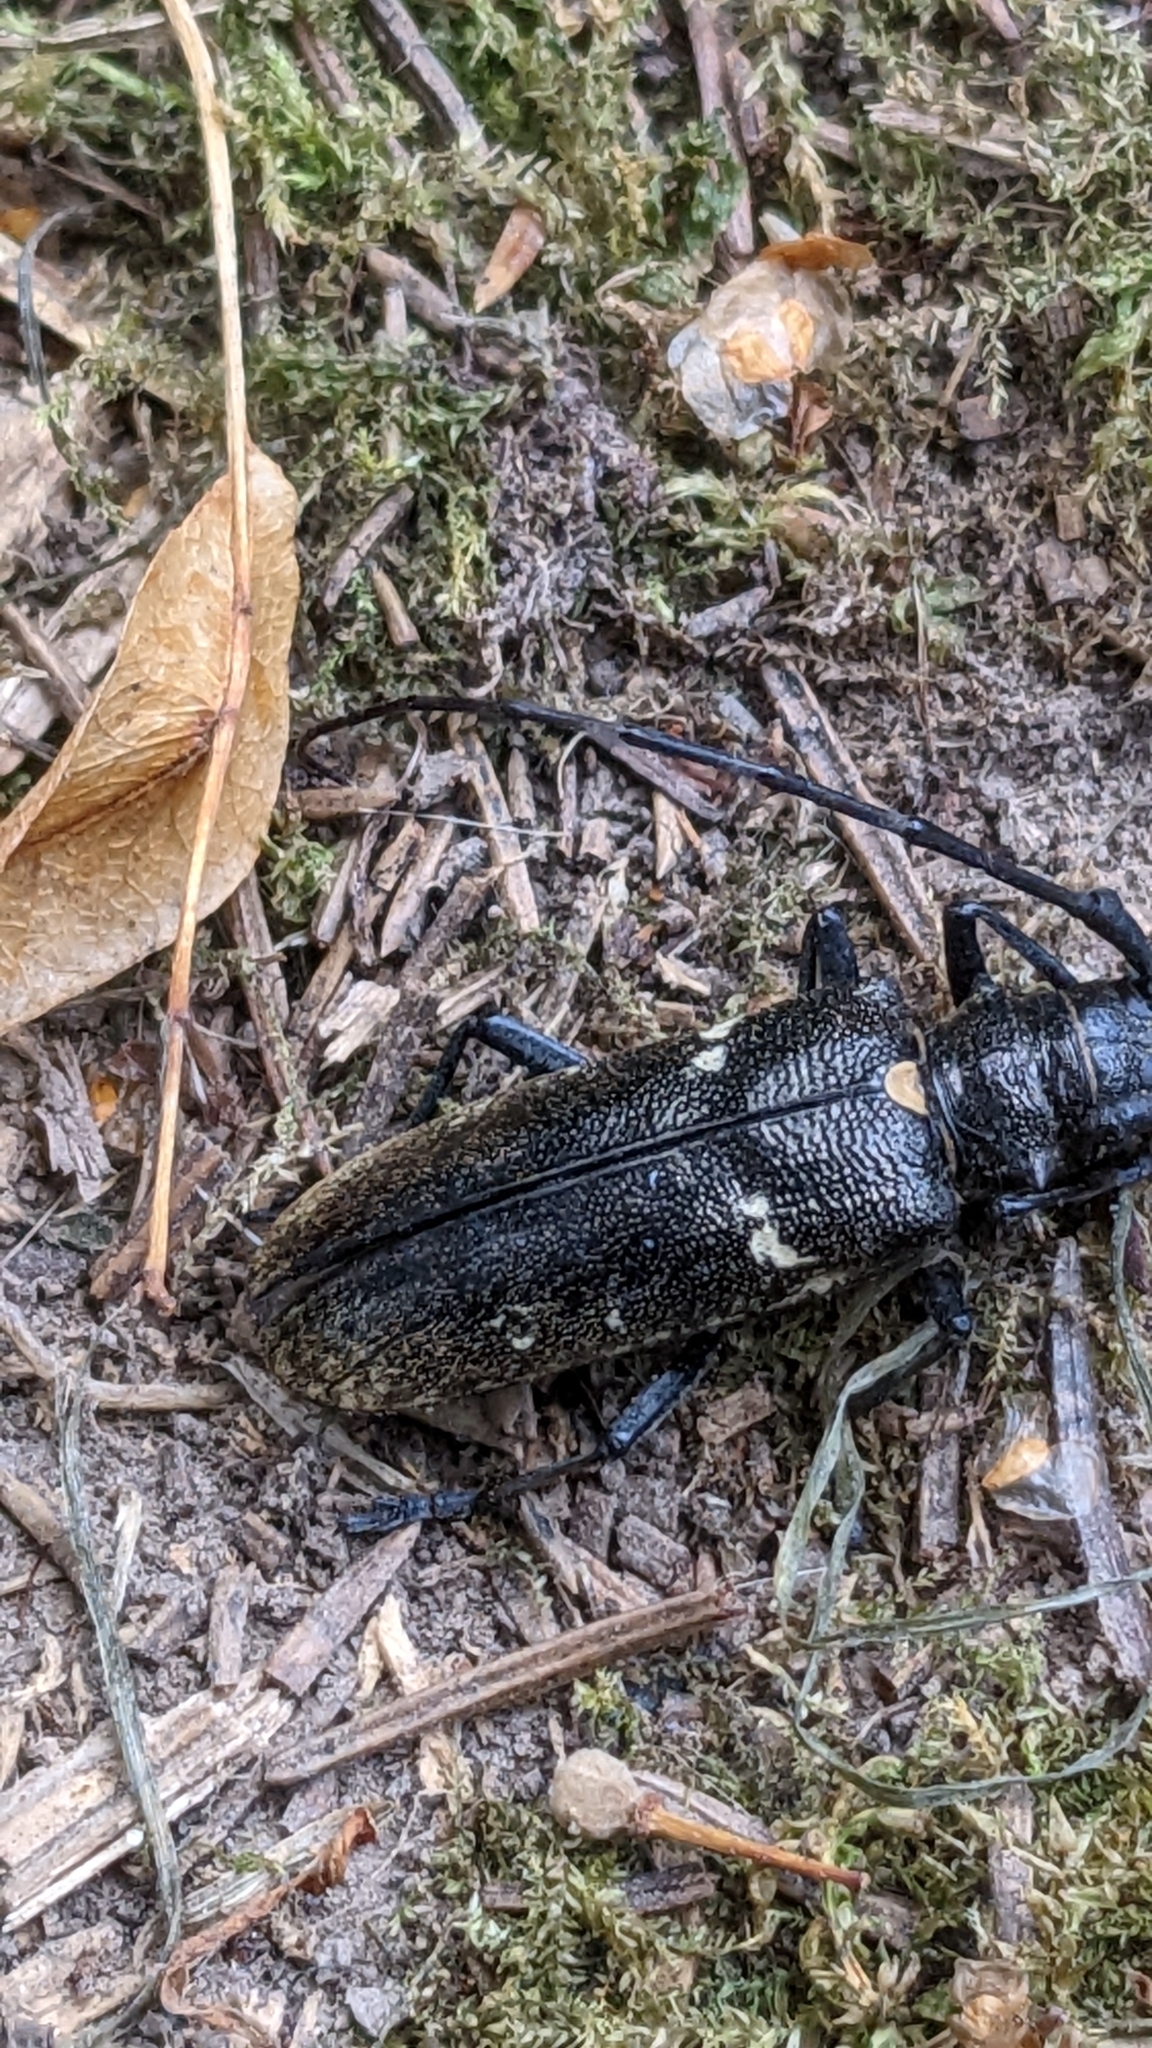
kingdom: Animalia
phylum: Arthropoda
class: Insecta
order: Coleoptera
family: Cerambycidae
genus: Monochamus
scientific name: Monochamus sartor
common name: Pine sawyer
